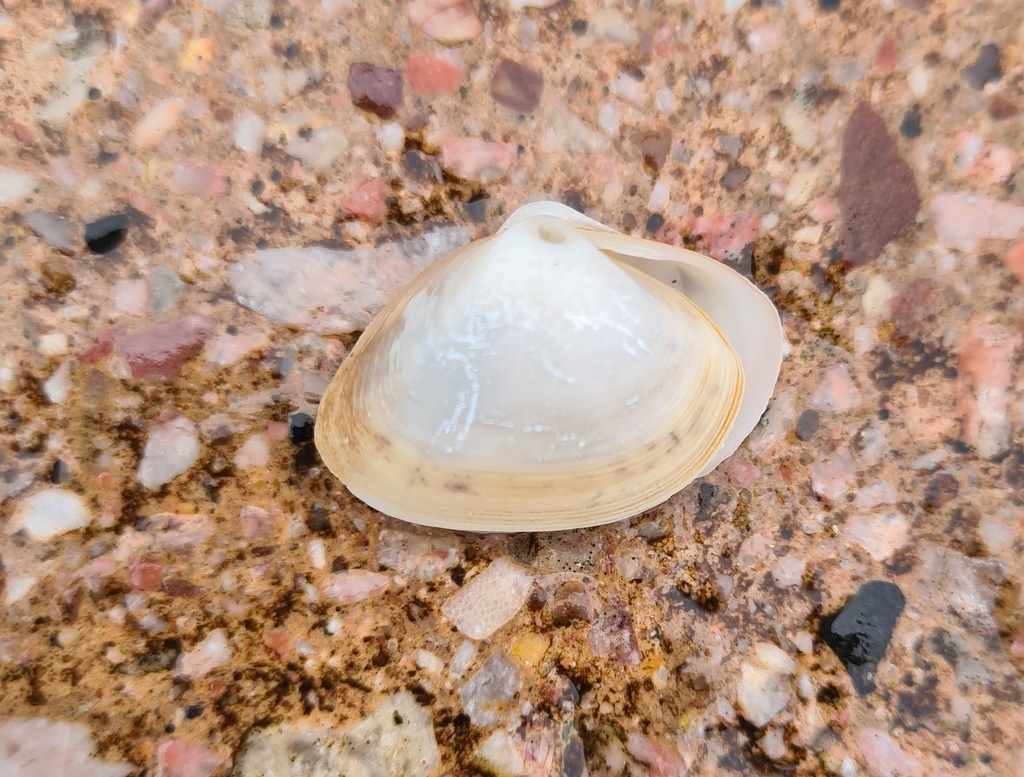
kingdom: Animalia
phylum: Mollusca
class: Bivalvia
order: Venerida
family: Mactridae
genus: Spisula
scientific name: Spisula subtruncata
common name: Cut trough shell
